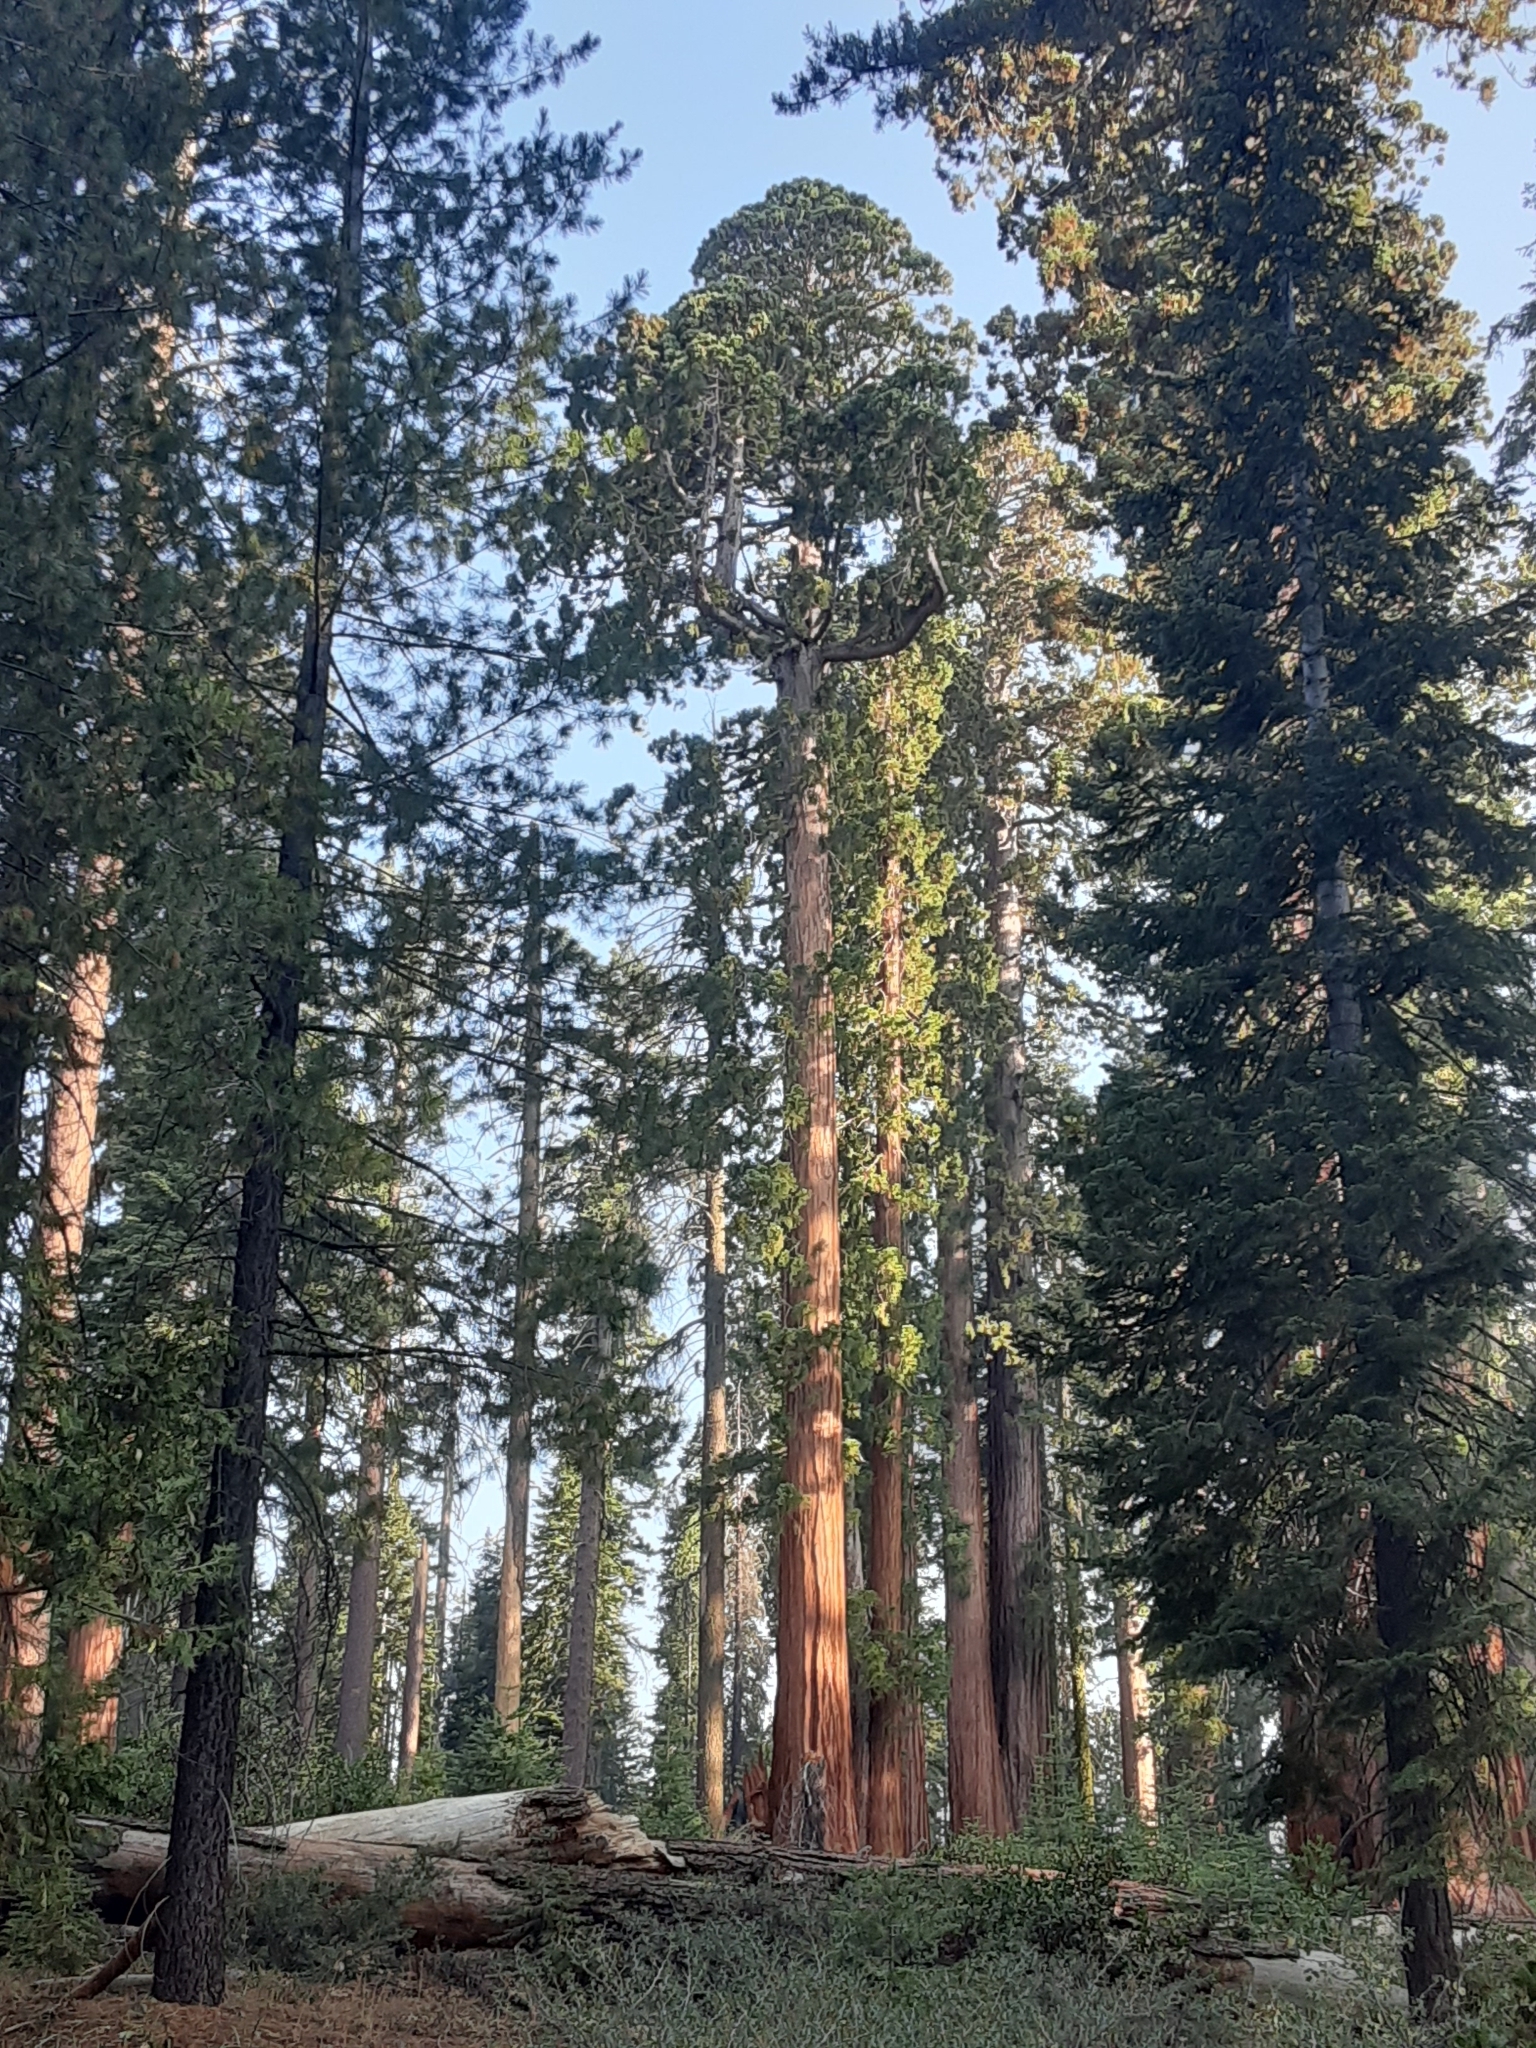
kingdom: Plantae
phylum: Tracheophyta
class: Pinopsida
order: Pinales
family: Cupressaceae
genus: Sequoiadendron
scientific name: Sequoiadendron giganteum
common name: Wellingtonia
